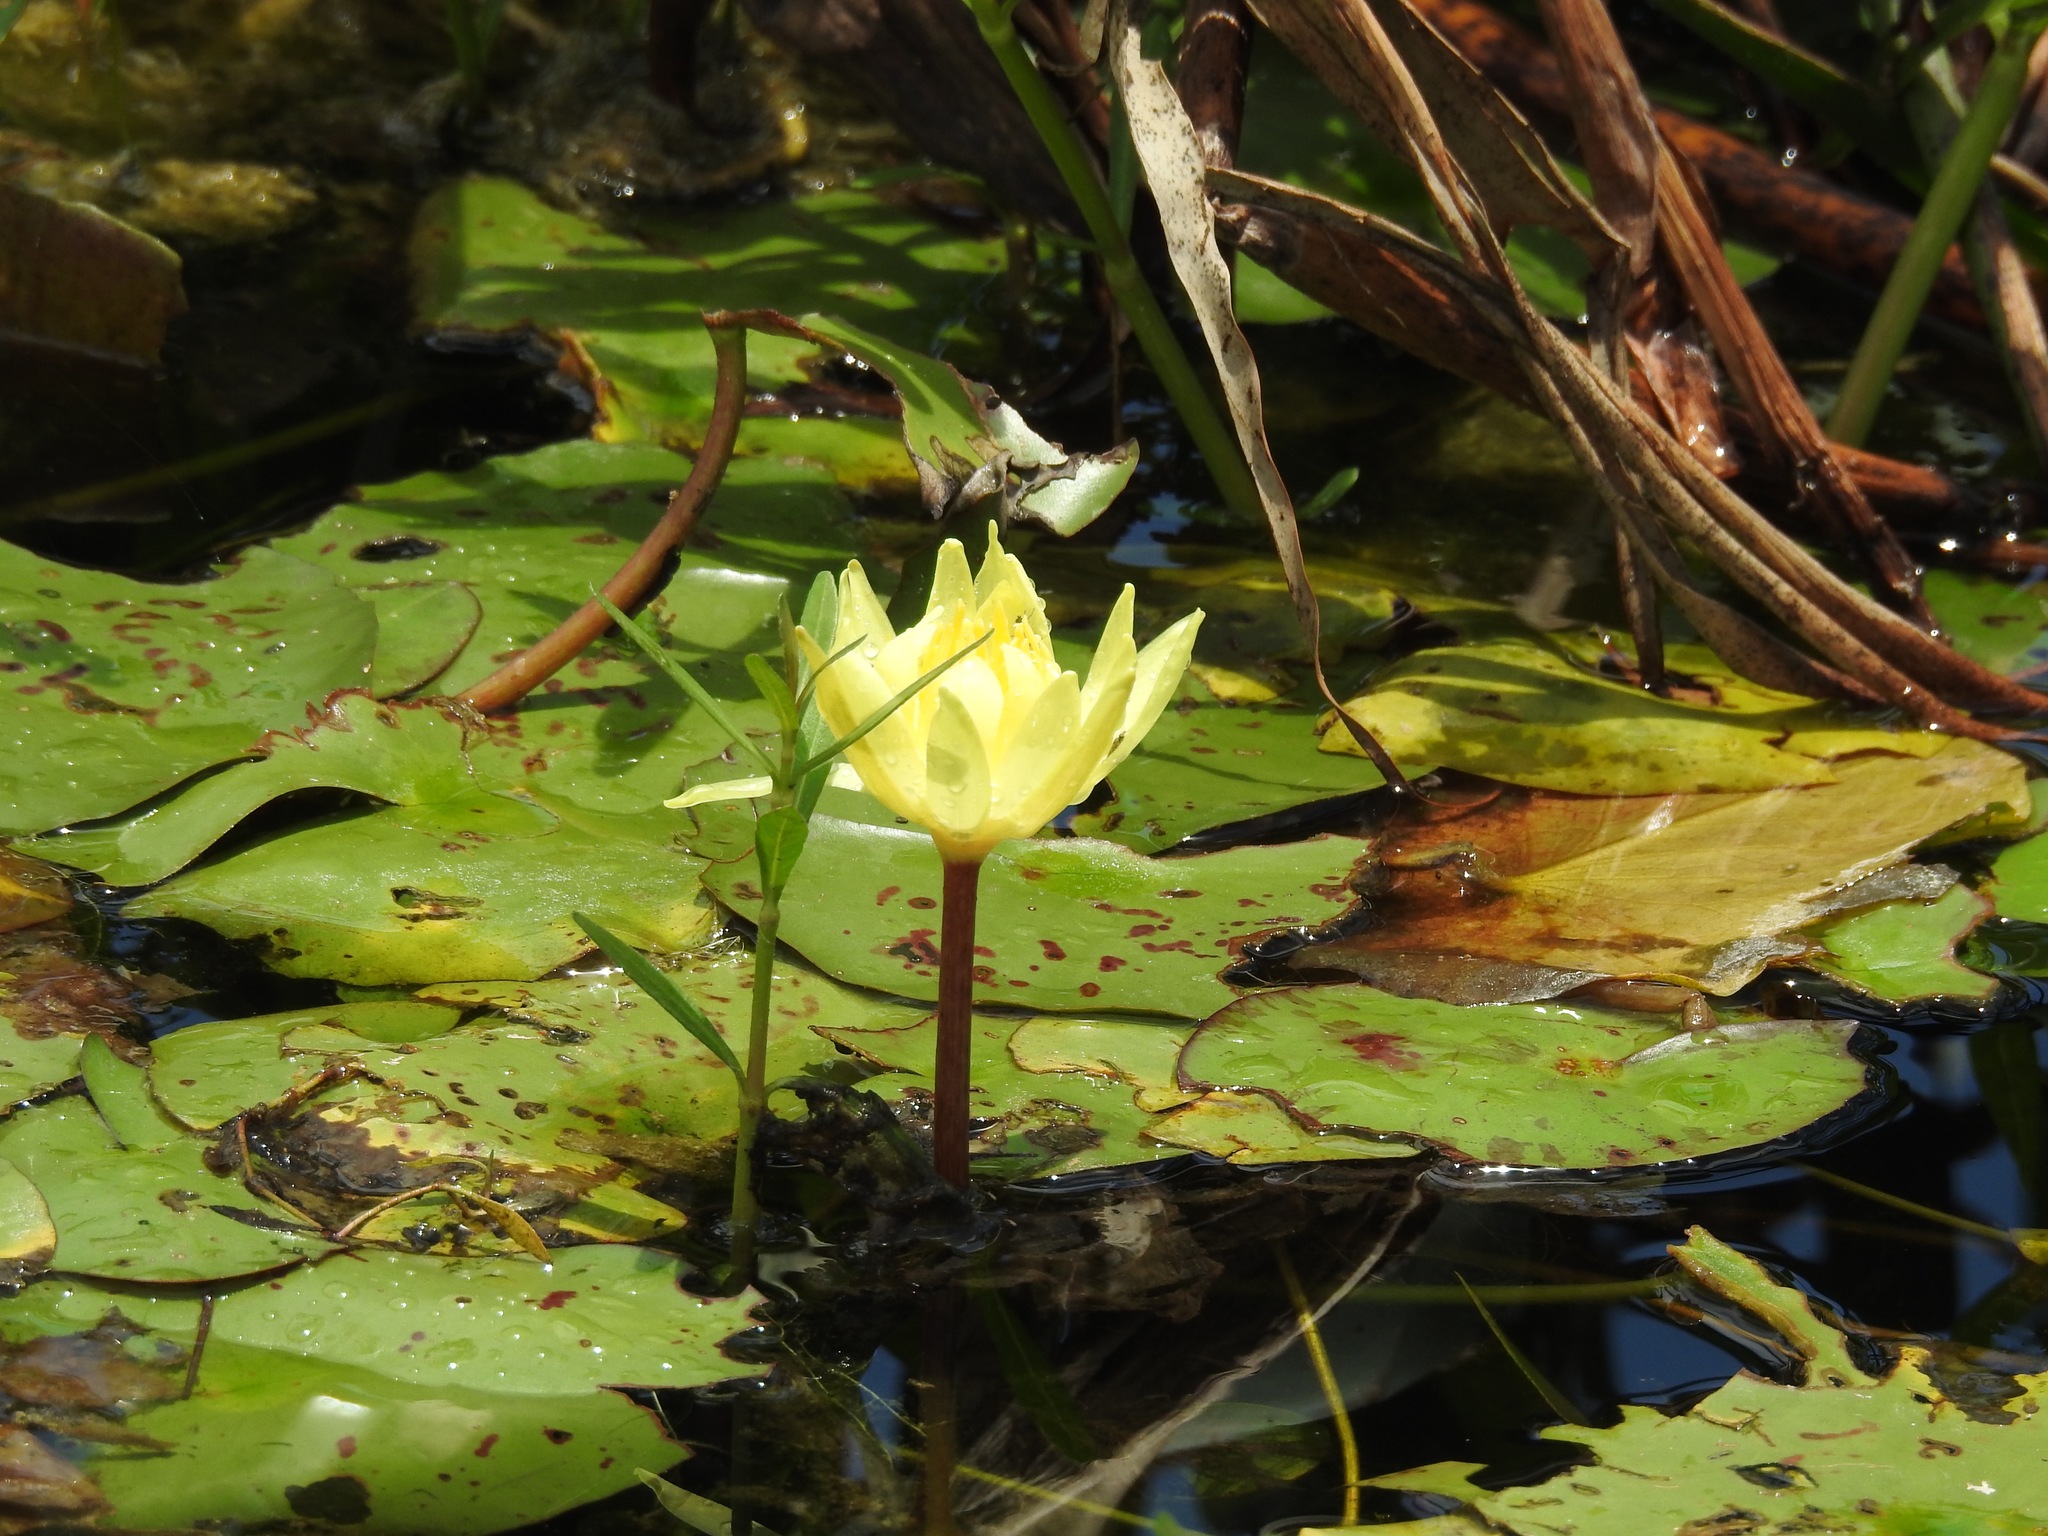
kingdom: Plantae
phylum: Tracheophyta
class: Magnoliopsida
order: Nymphaeales
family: Nymphaeaceae
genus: Nymphaea
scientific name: Nymphaea mexicana
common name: Banana water-lily
